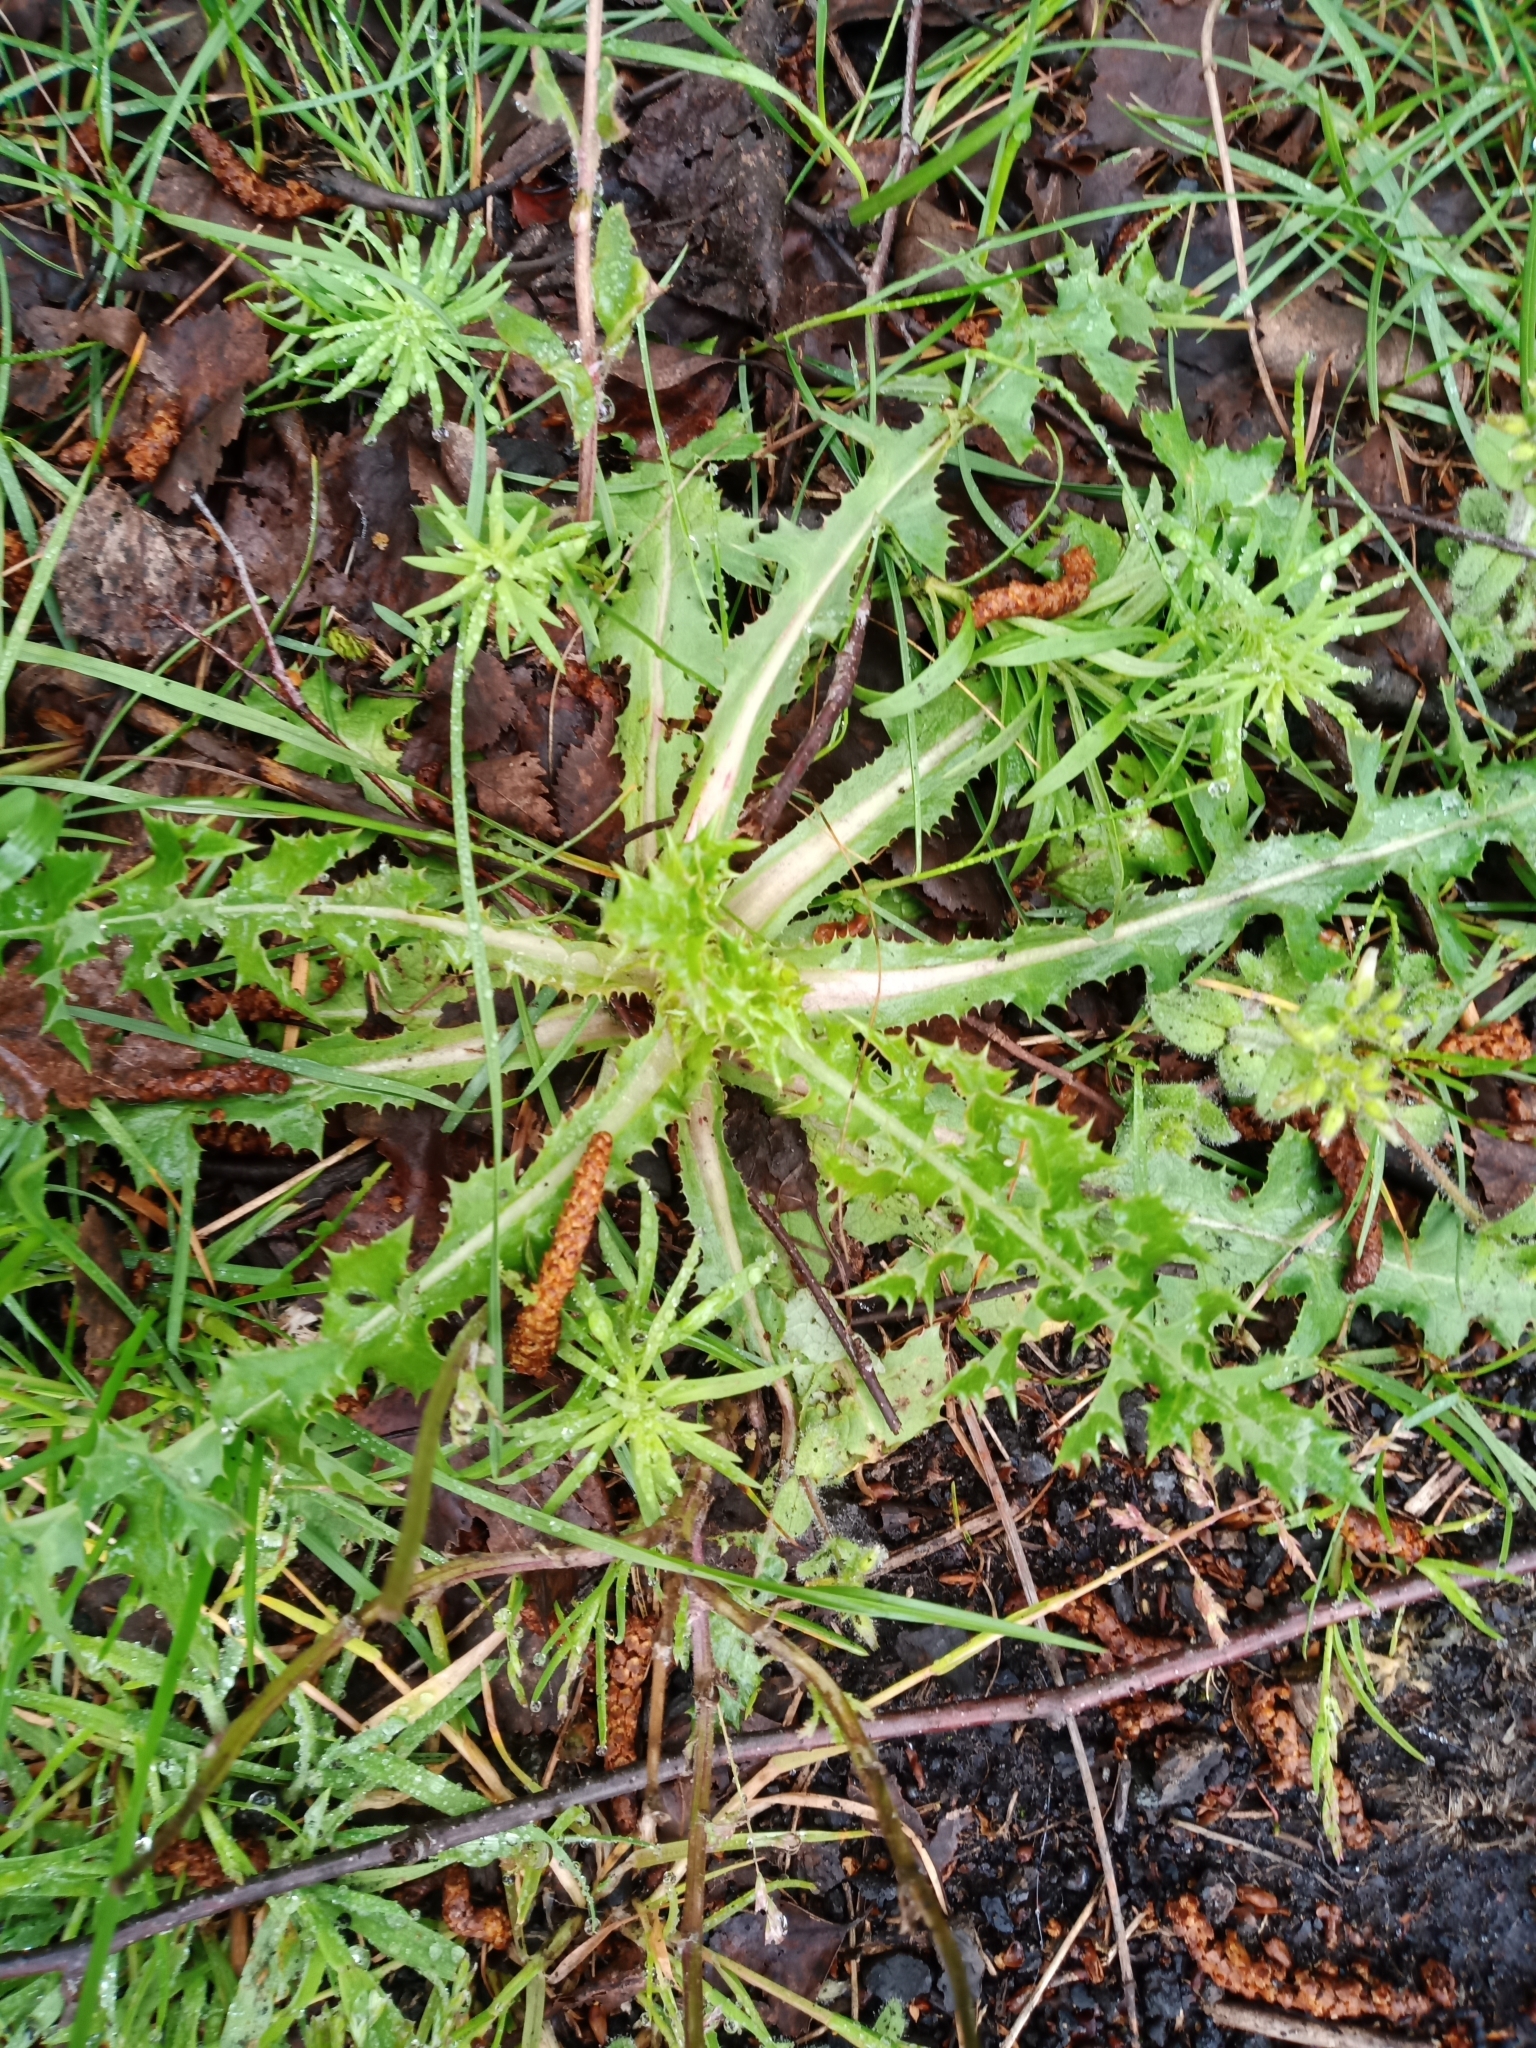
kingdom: Plantae
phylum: Tracheophyta
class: Magnoliopsida
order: Asterales
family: Asteraceae
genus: Sonchus
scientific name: Sonchus asper
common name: Prickly sow-thistle
